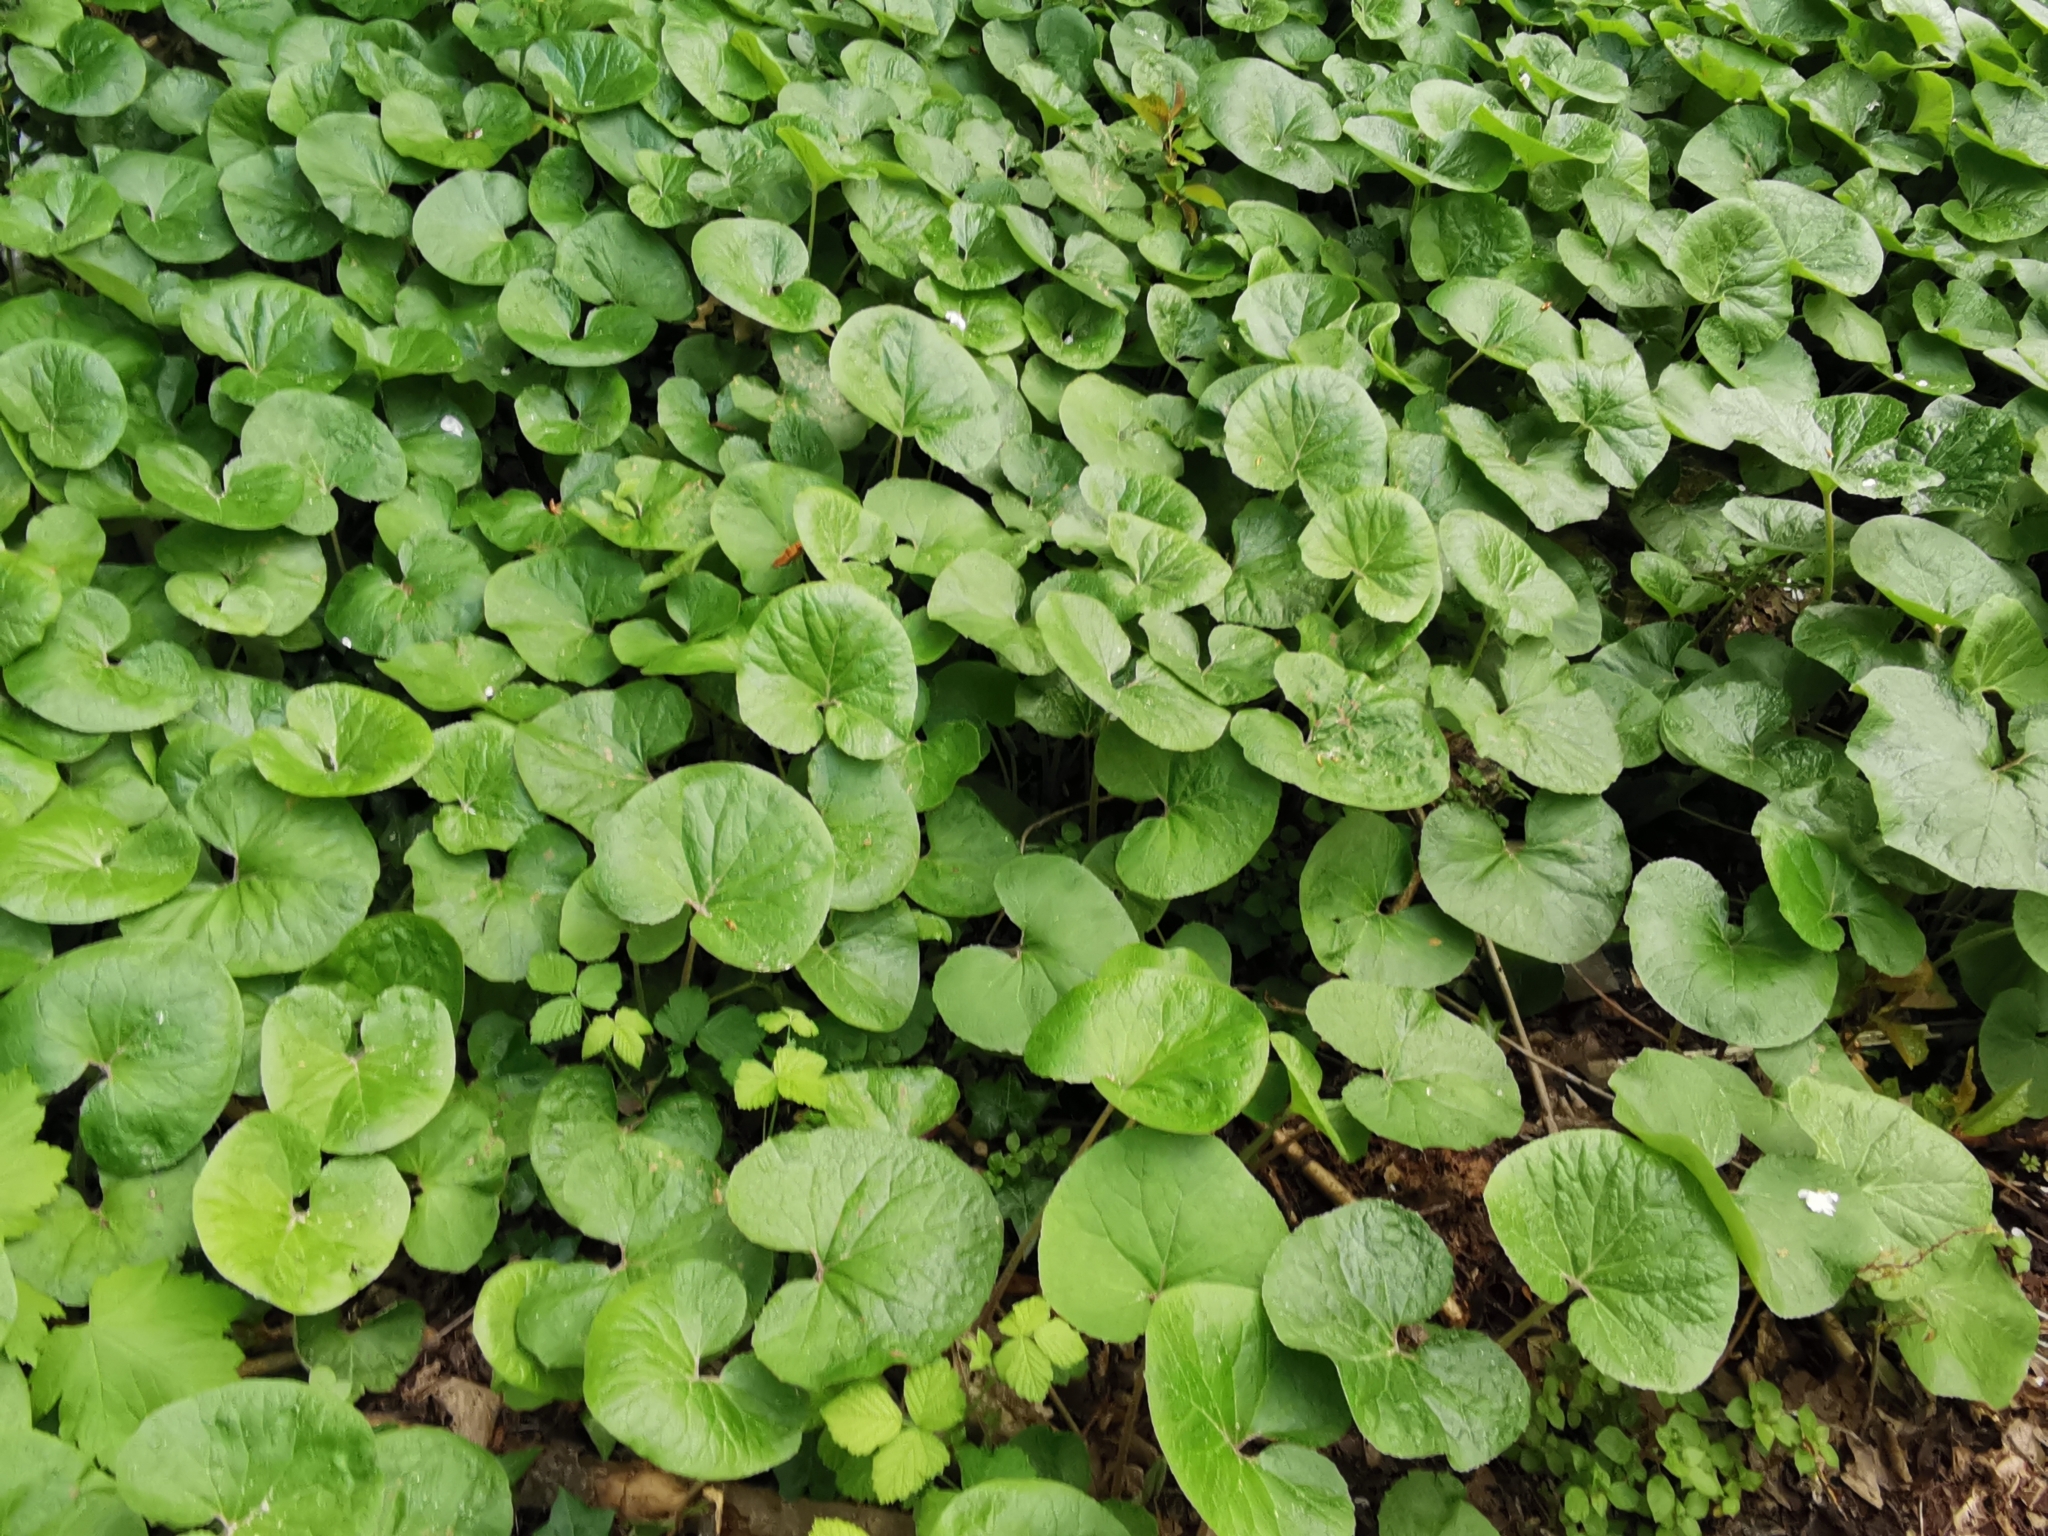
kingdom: Plantae
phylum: Tracheophyta
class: Magnoliopsida
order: Asterales
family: Asteraceae
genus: Tussilago
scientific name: Tussilago farfara
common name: Coltsfoot
